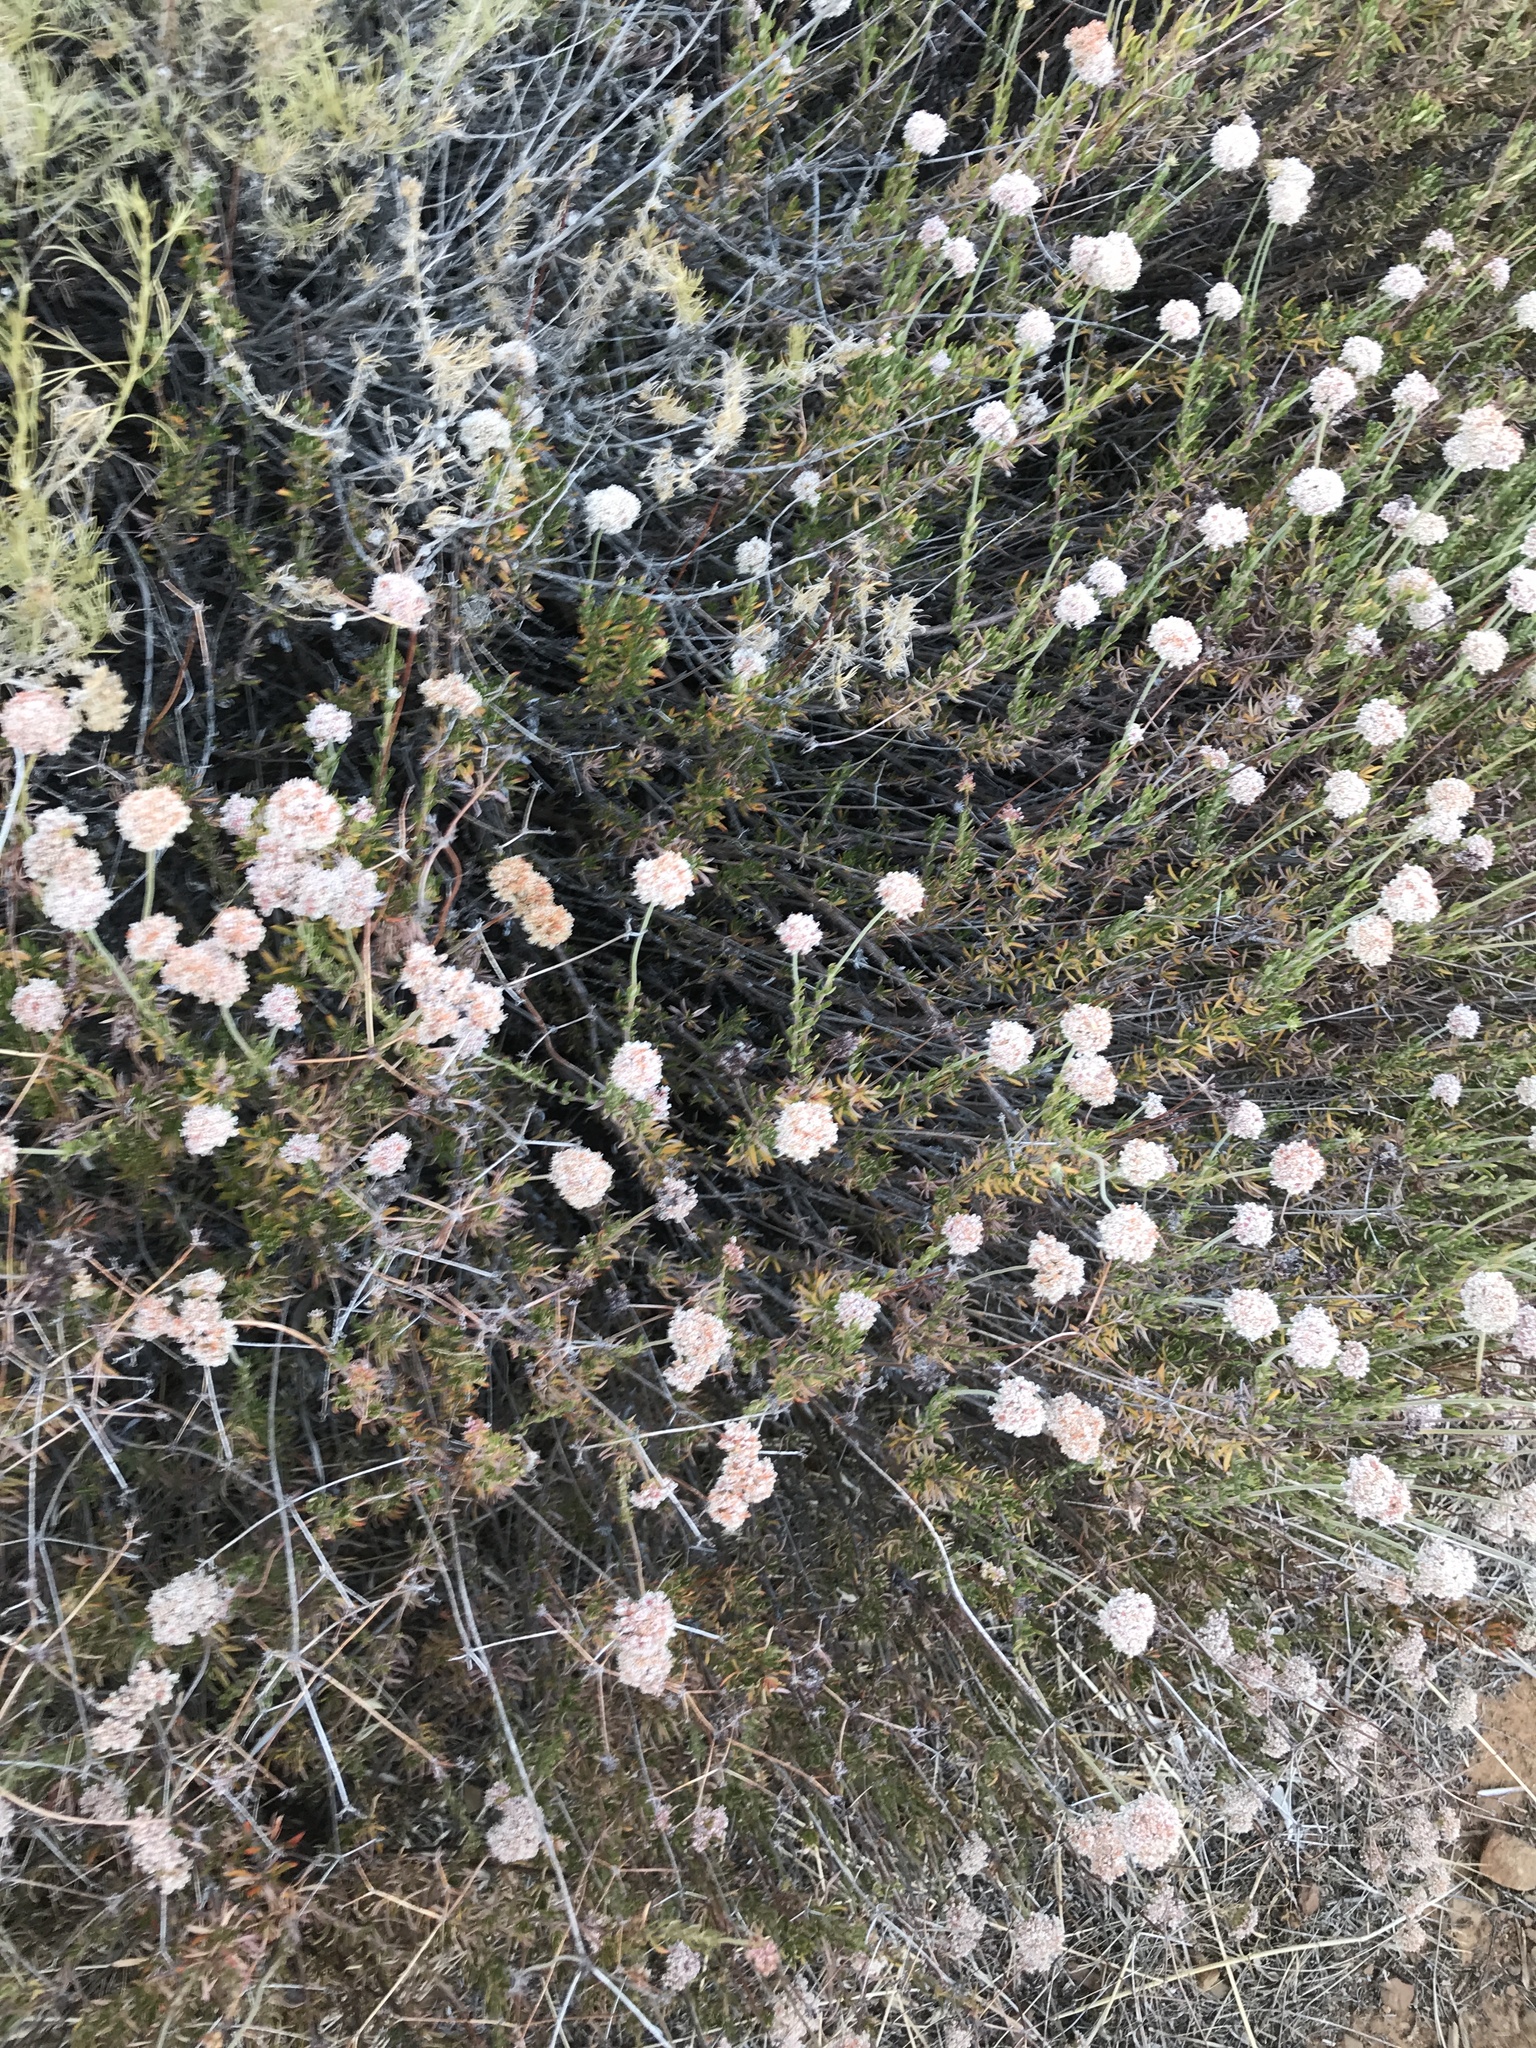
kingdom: Plantae
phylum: Tracheophyta
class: Magnoliopsida
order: Caryophyllales
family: Polygonaceae
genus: Eriogonum
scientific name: Eriogonum fasciculatum
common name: California wild buckwheat
